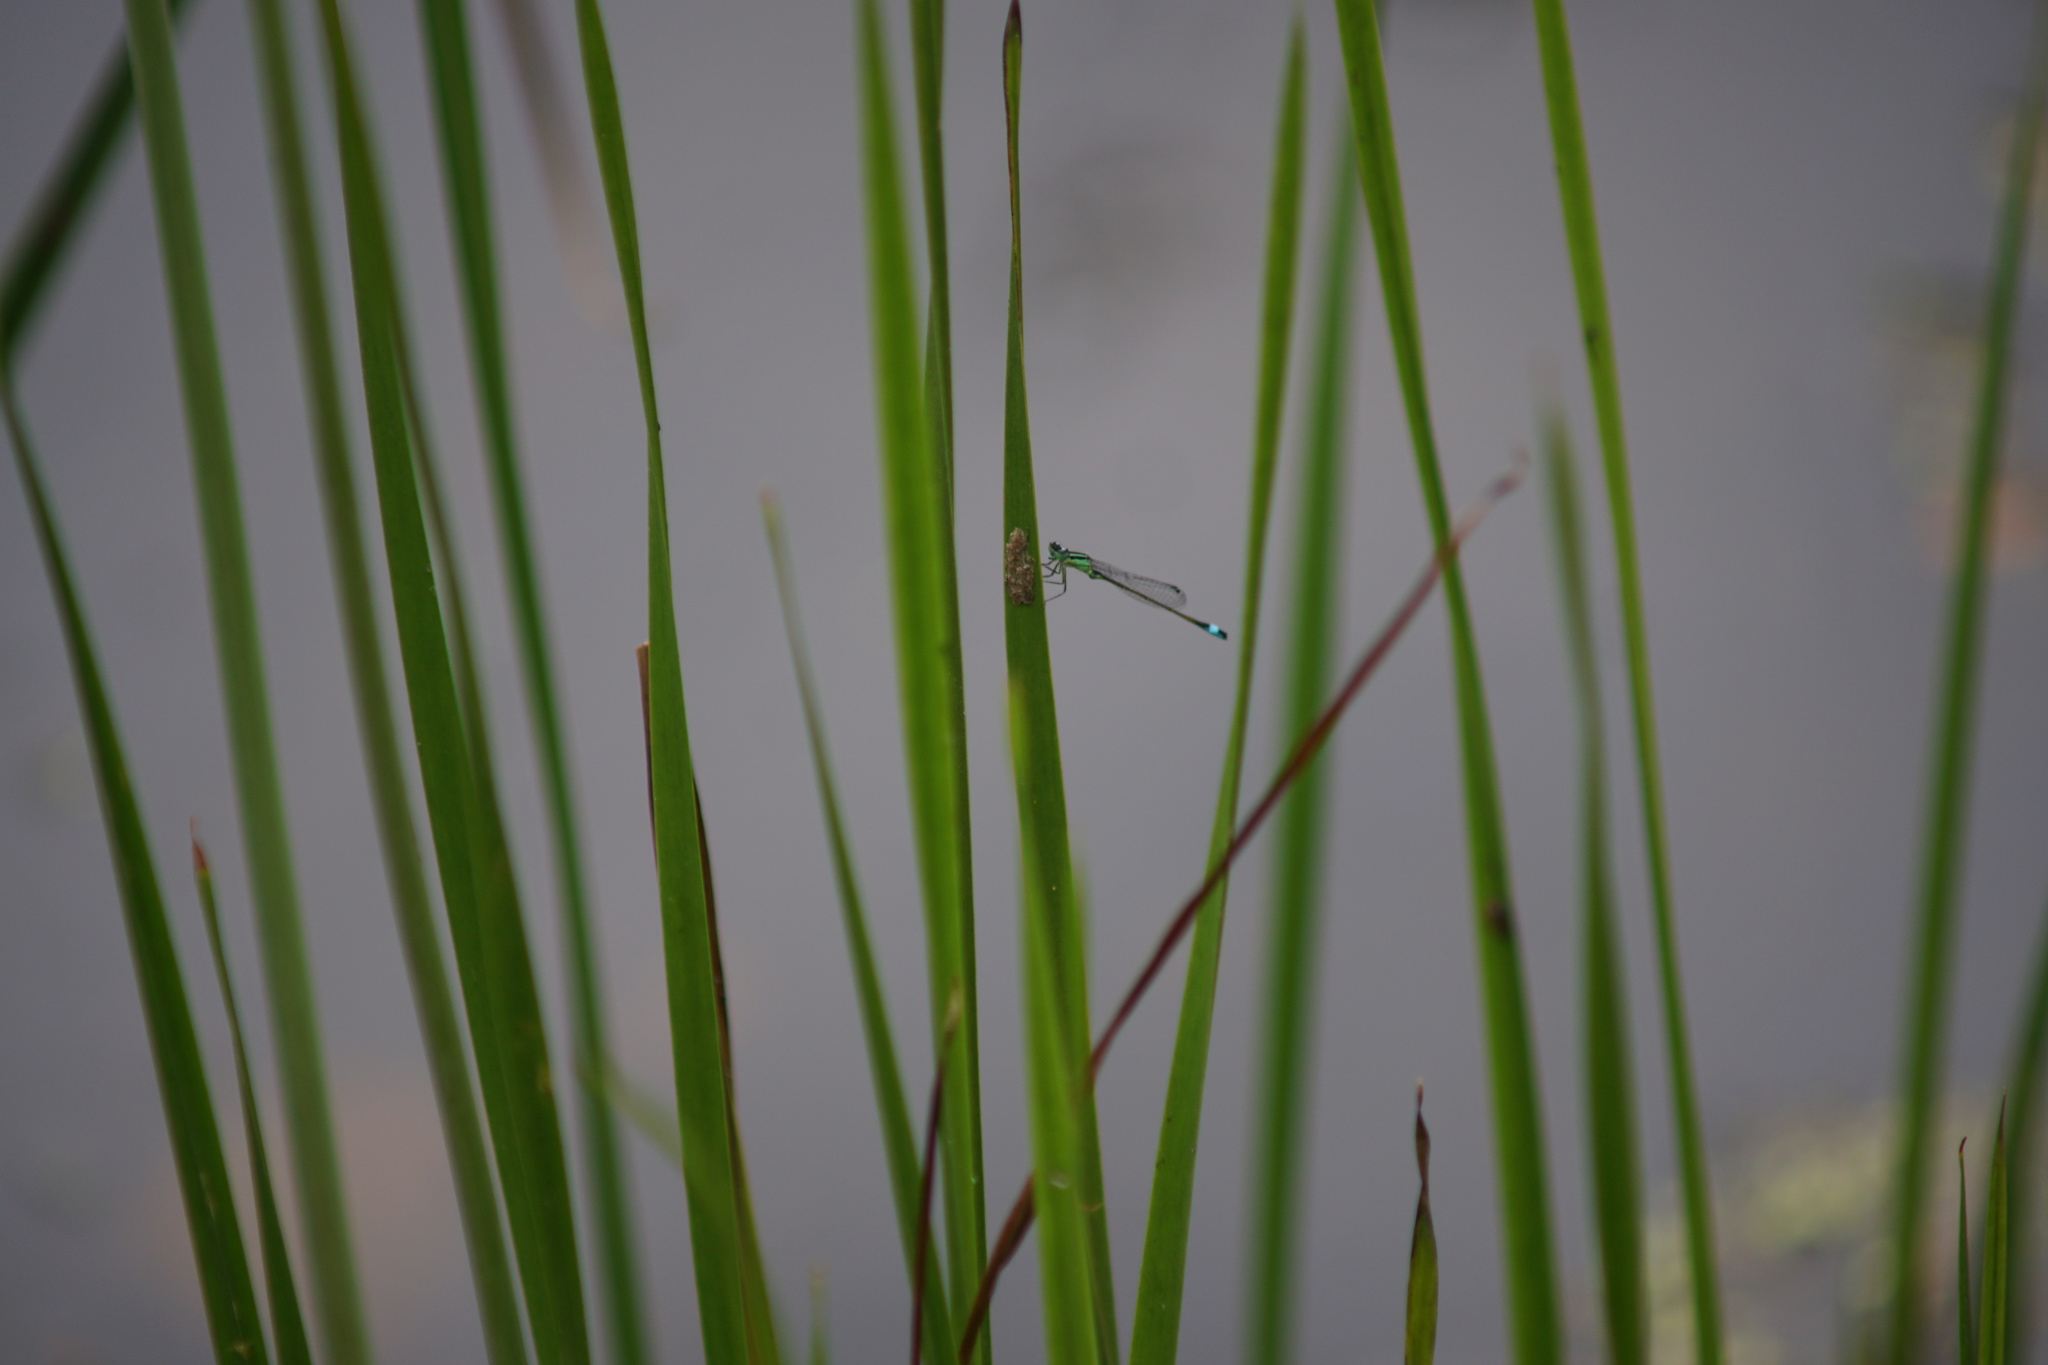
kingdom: Animalia
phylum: Arthropoda
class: Insecta
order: Odonata
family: Coenagrionidae
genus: Ischnura
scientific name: Ischnura elegans
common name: Blue-tailed damselfly
